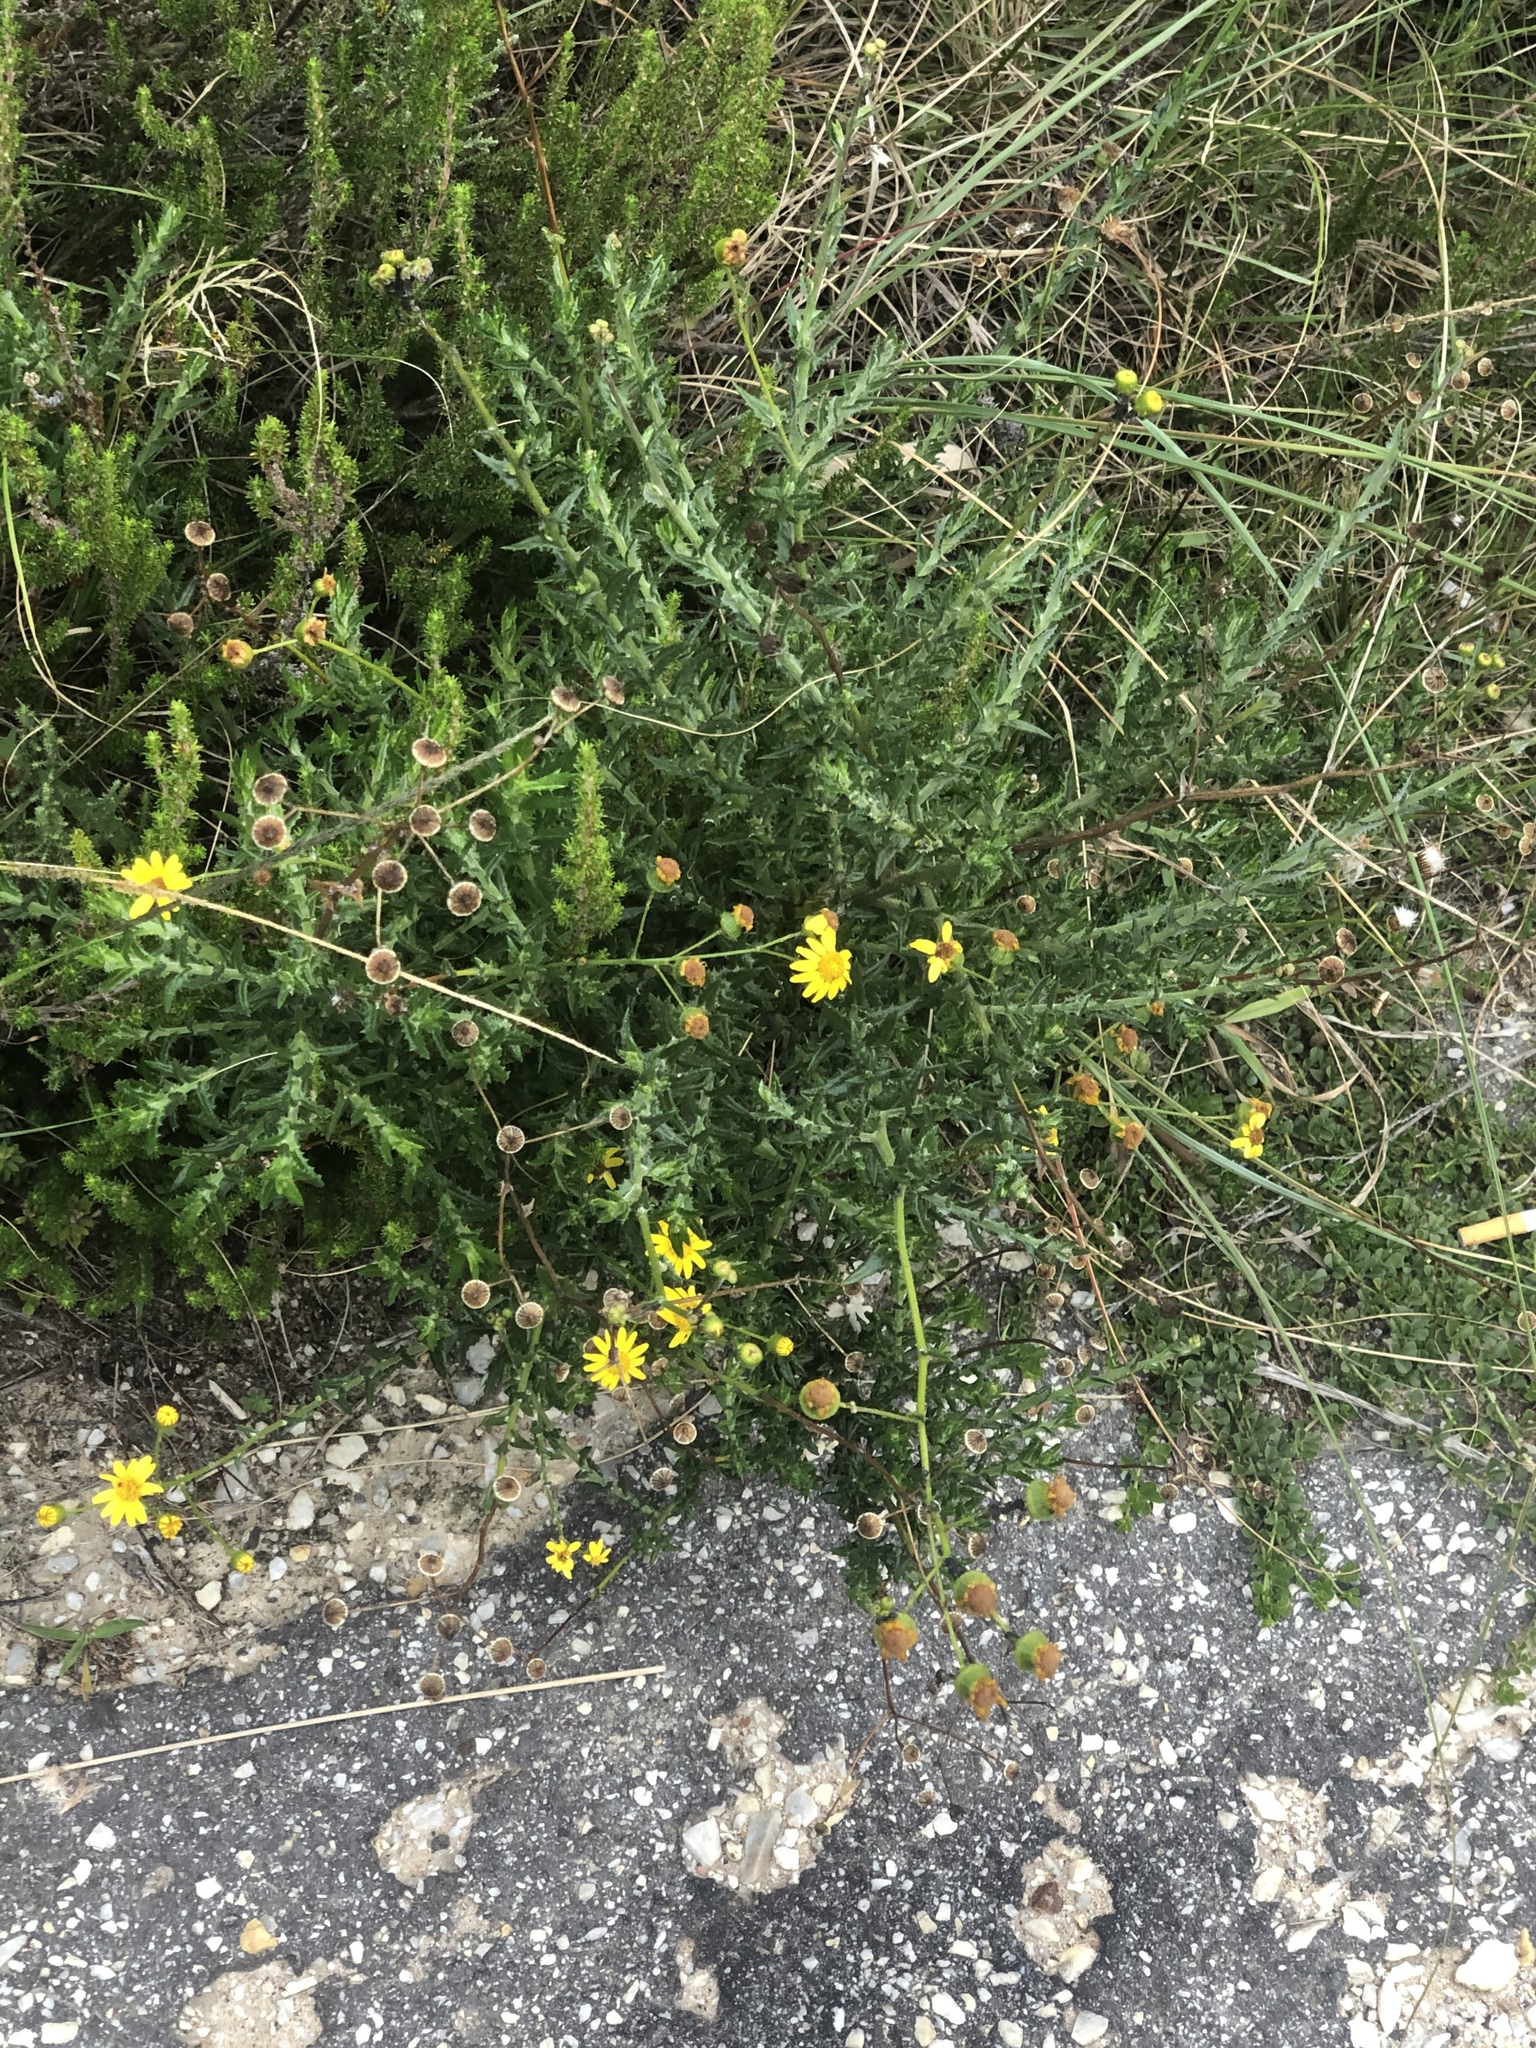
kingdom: Plantae
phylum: Tracheophyta
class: Magnoliopsida
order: Asterales
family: Asteraceae
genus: Senecio
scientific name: Senecio ilicifolius
